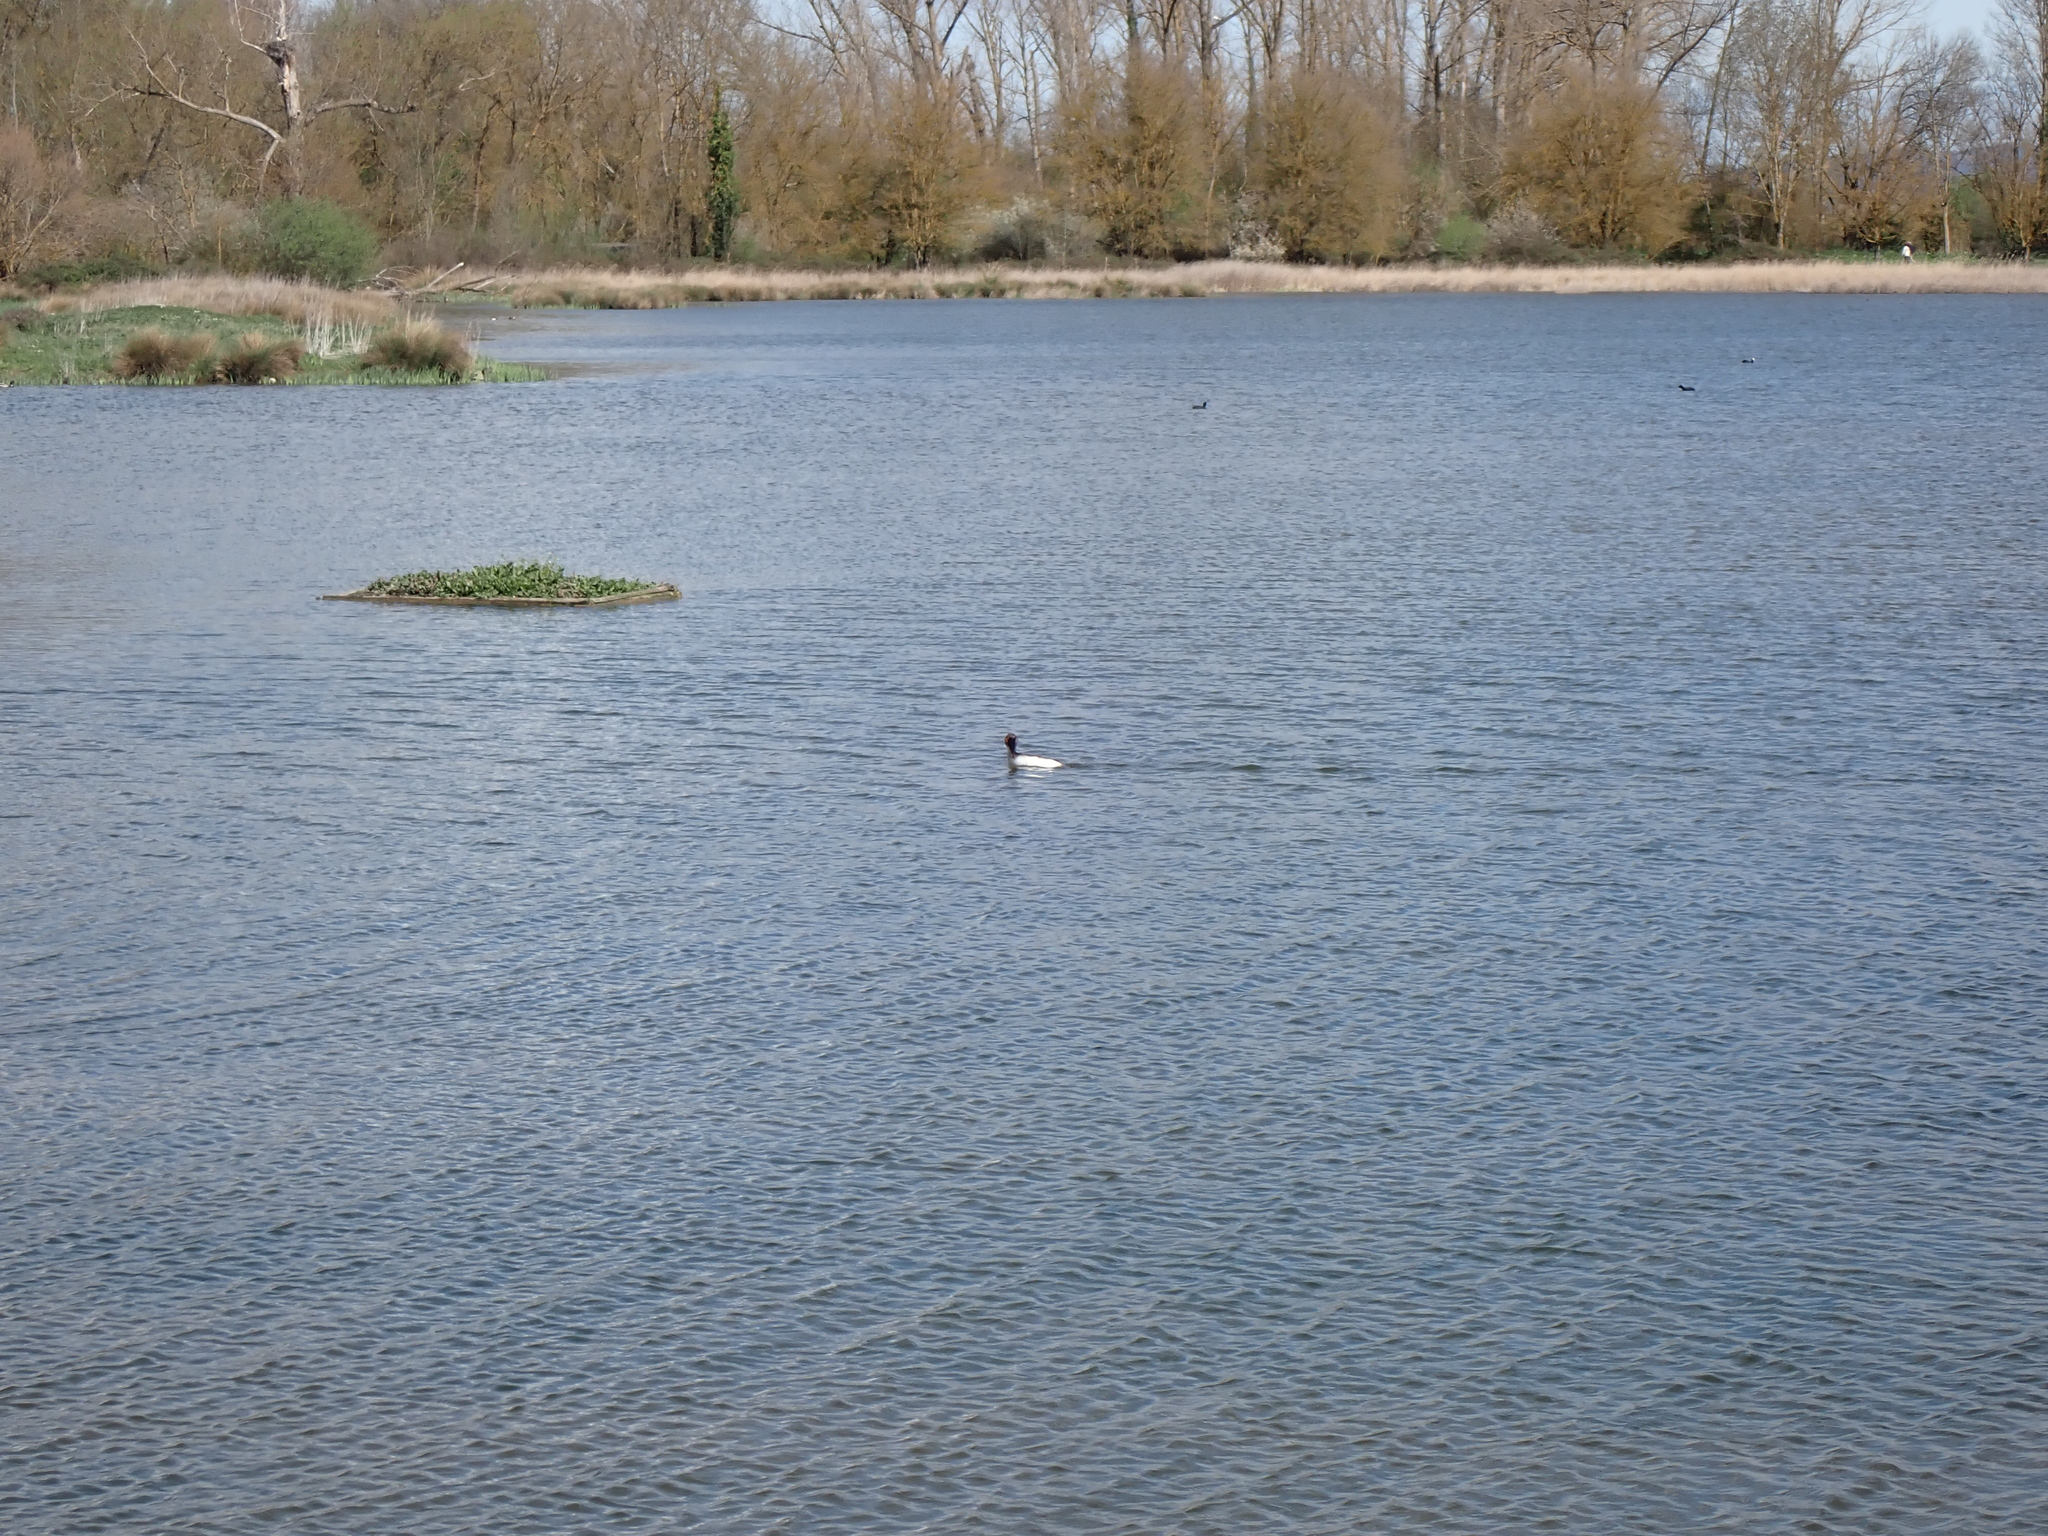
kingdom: Animalia
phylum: Chordata
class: Aves
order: Podicipediformes
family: Podicipedidae
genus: Podiceps
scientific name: Podiceps cristatus
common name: Great crested grebe
